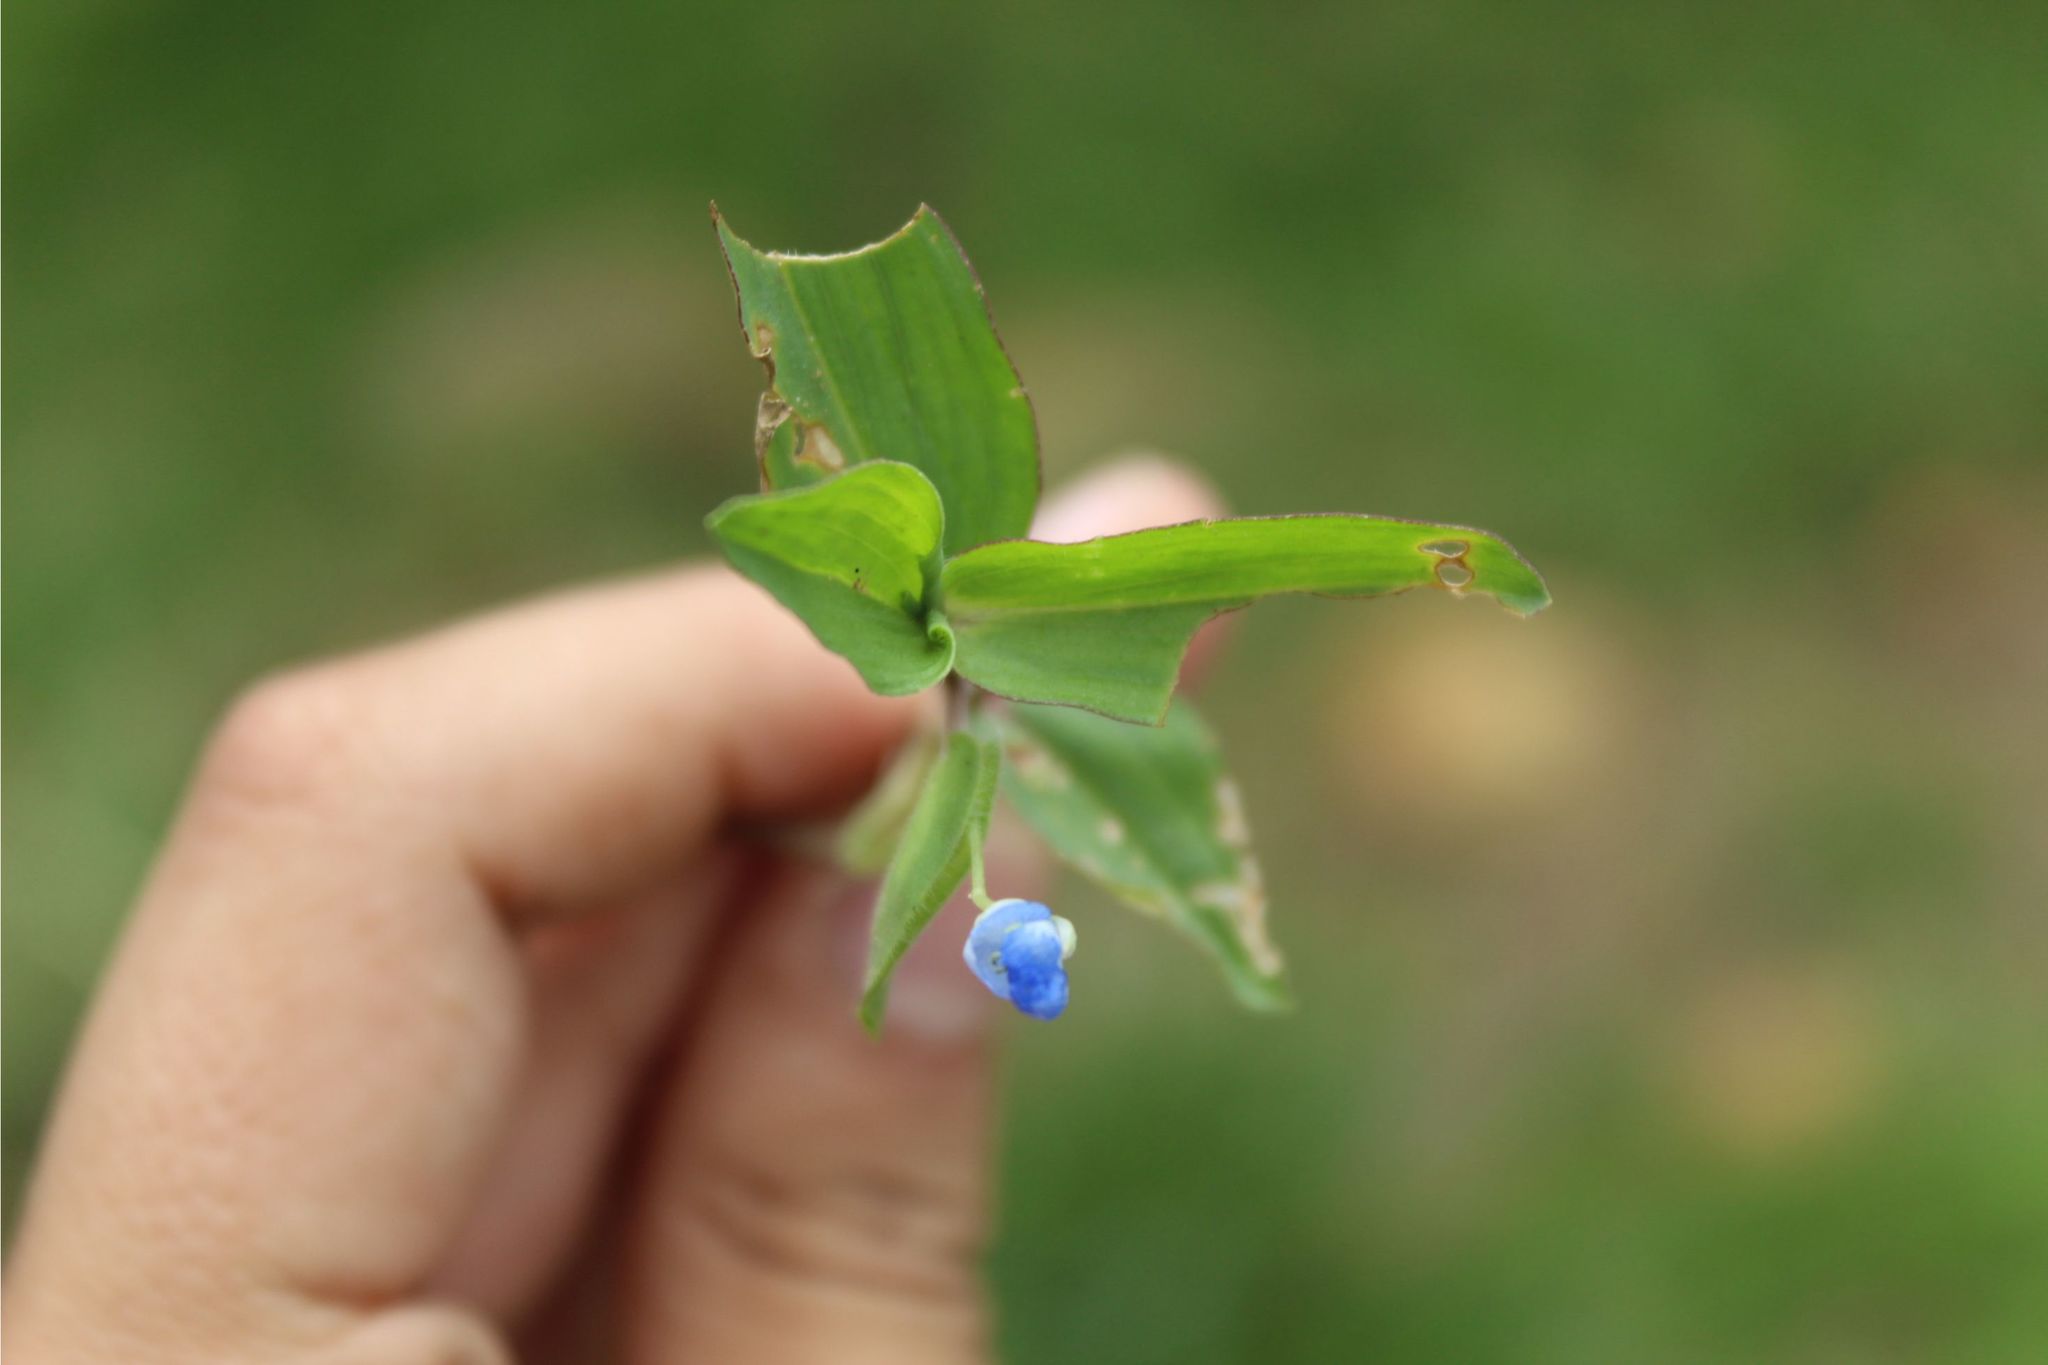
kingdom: Plantae
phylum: Tracheophyta
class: Liliopsida
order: Commelinales
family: Commelinaceae
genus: Commelina
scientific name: Commelina diffusa
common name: Climbing dayflower
